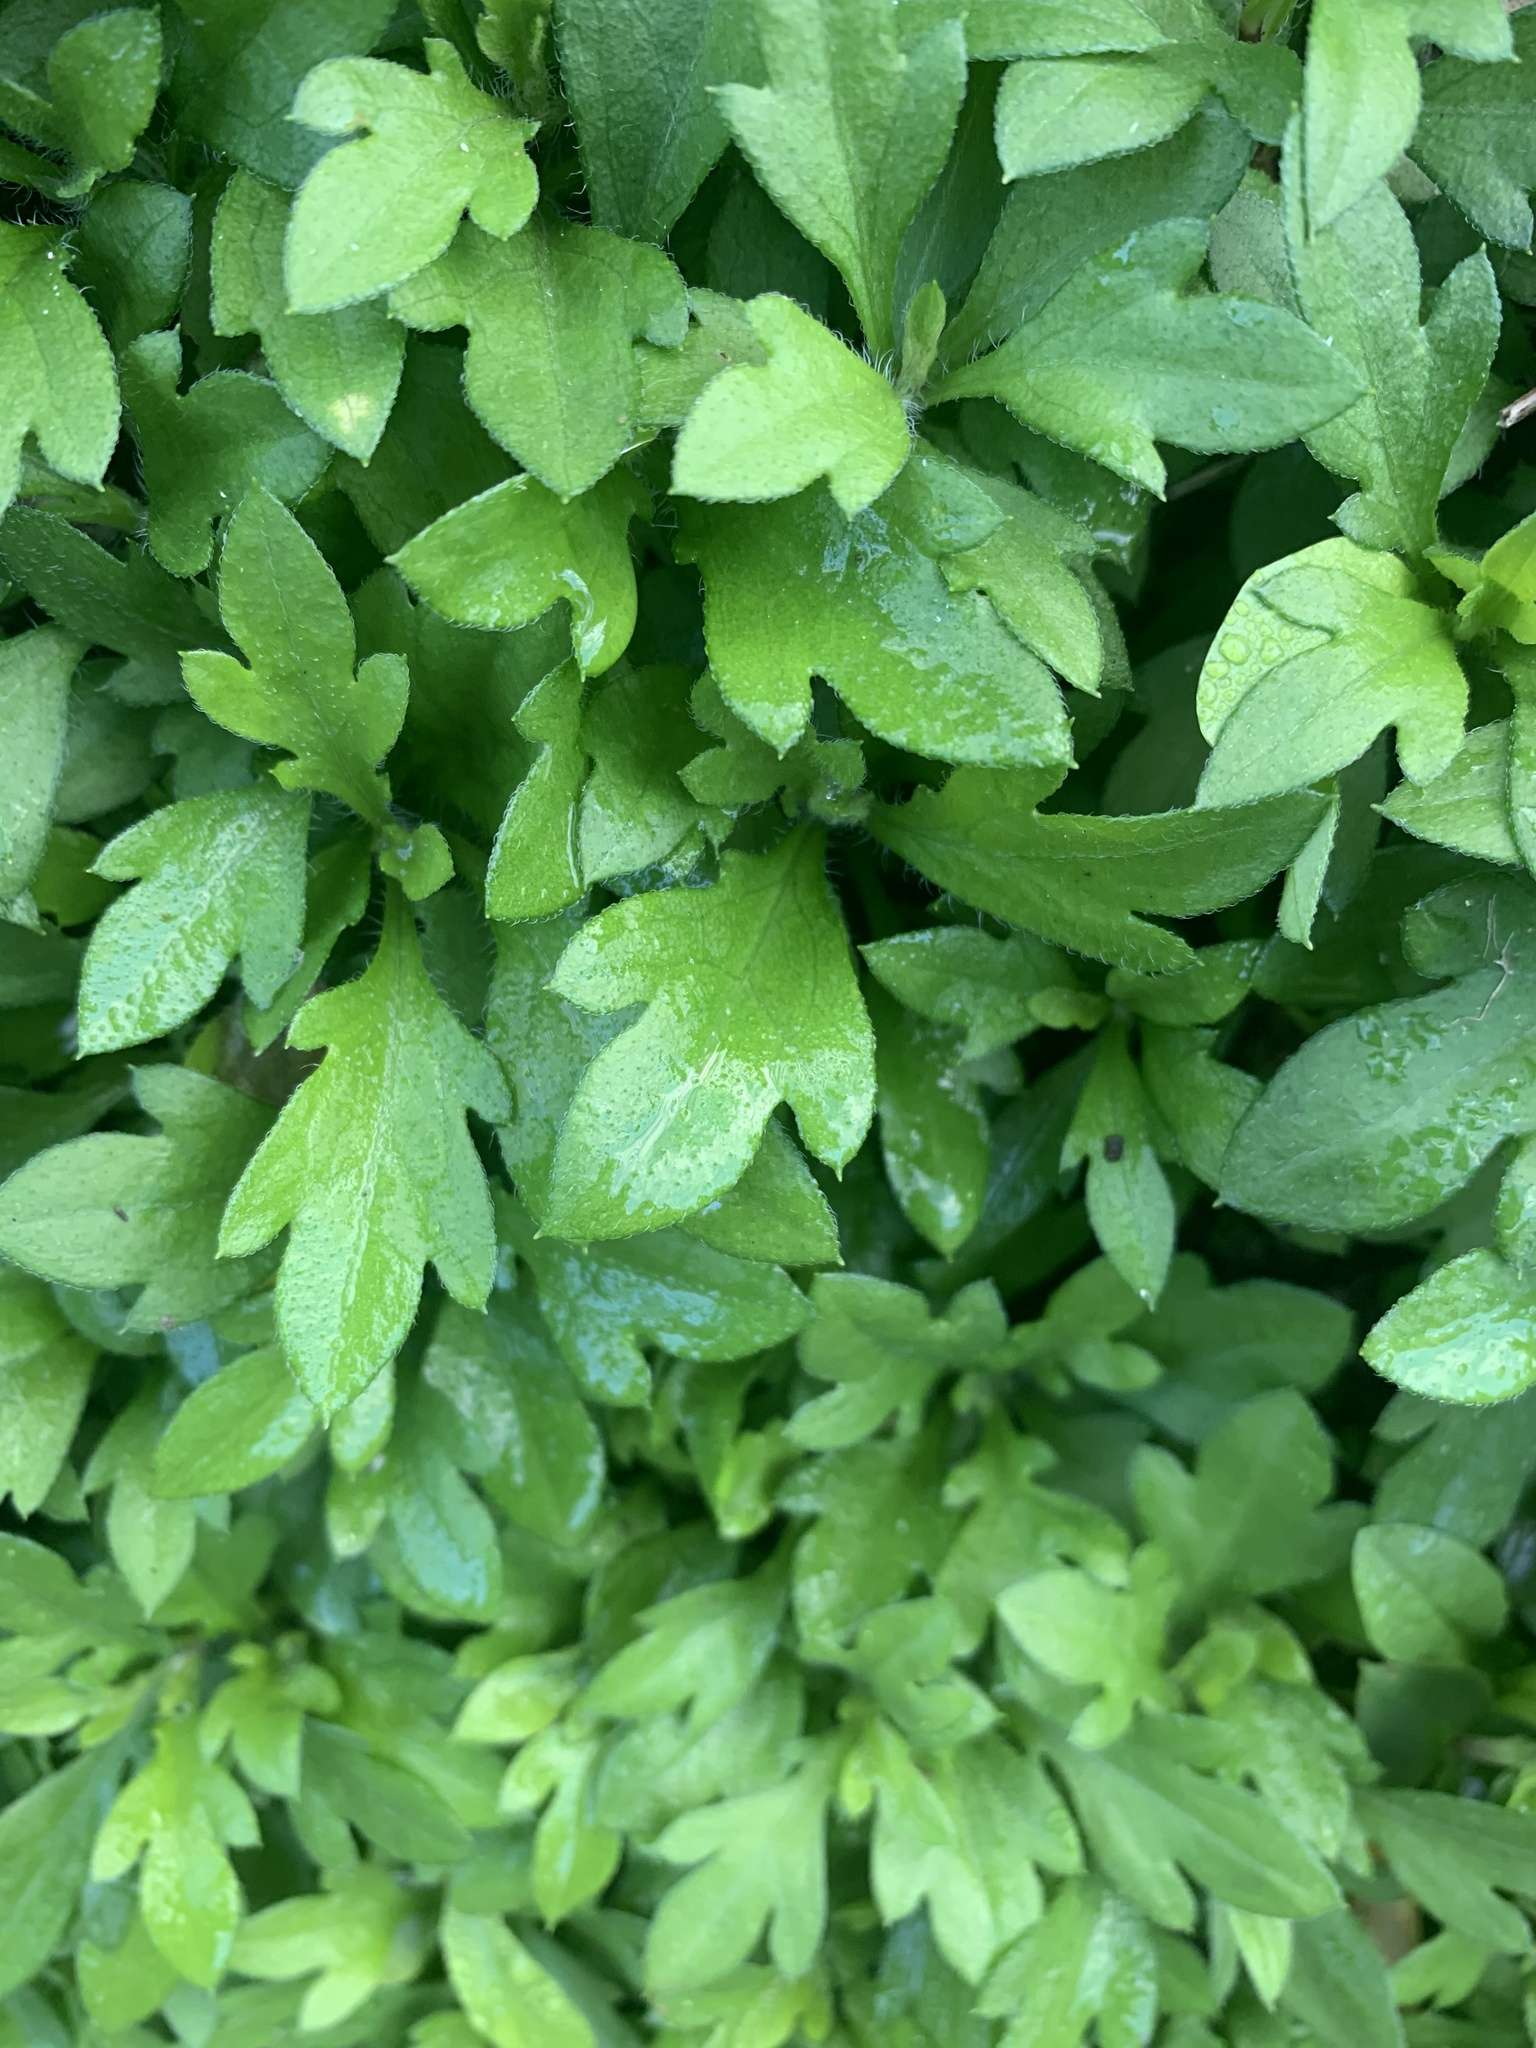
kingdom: Plantae
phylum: Tracheophyta
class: Magnoliopsida
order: Asterales
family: Asteraceae
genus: Erigeron
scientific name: Erigeron karvinskianus
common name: Mexican fleabane
